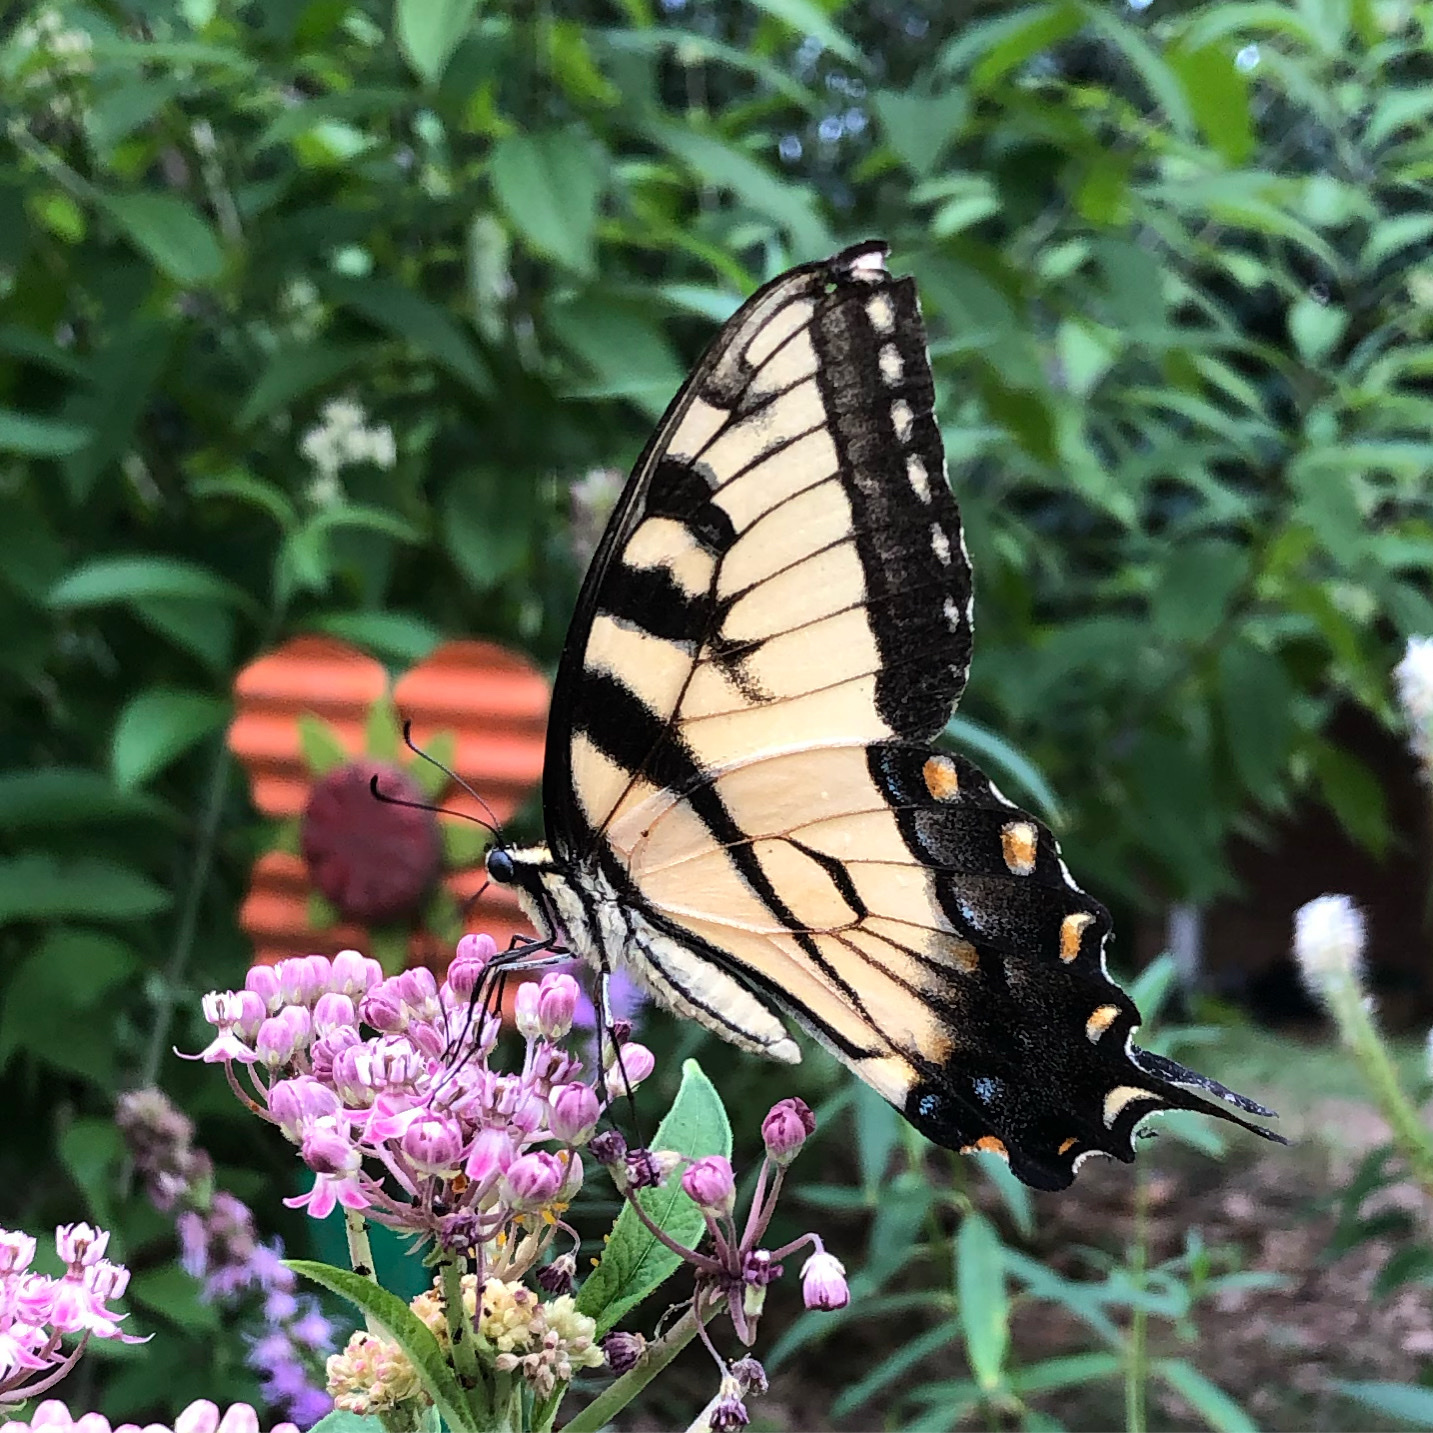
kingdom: Animalia
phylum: Arthropoda
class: Insecta
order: Lepidoptera
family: Papilionidae
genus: Papilio
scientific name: Papilio glaucus
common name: Tiger swallowtail
